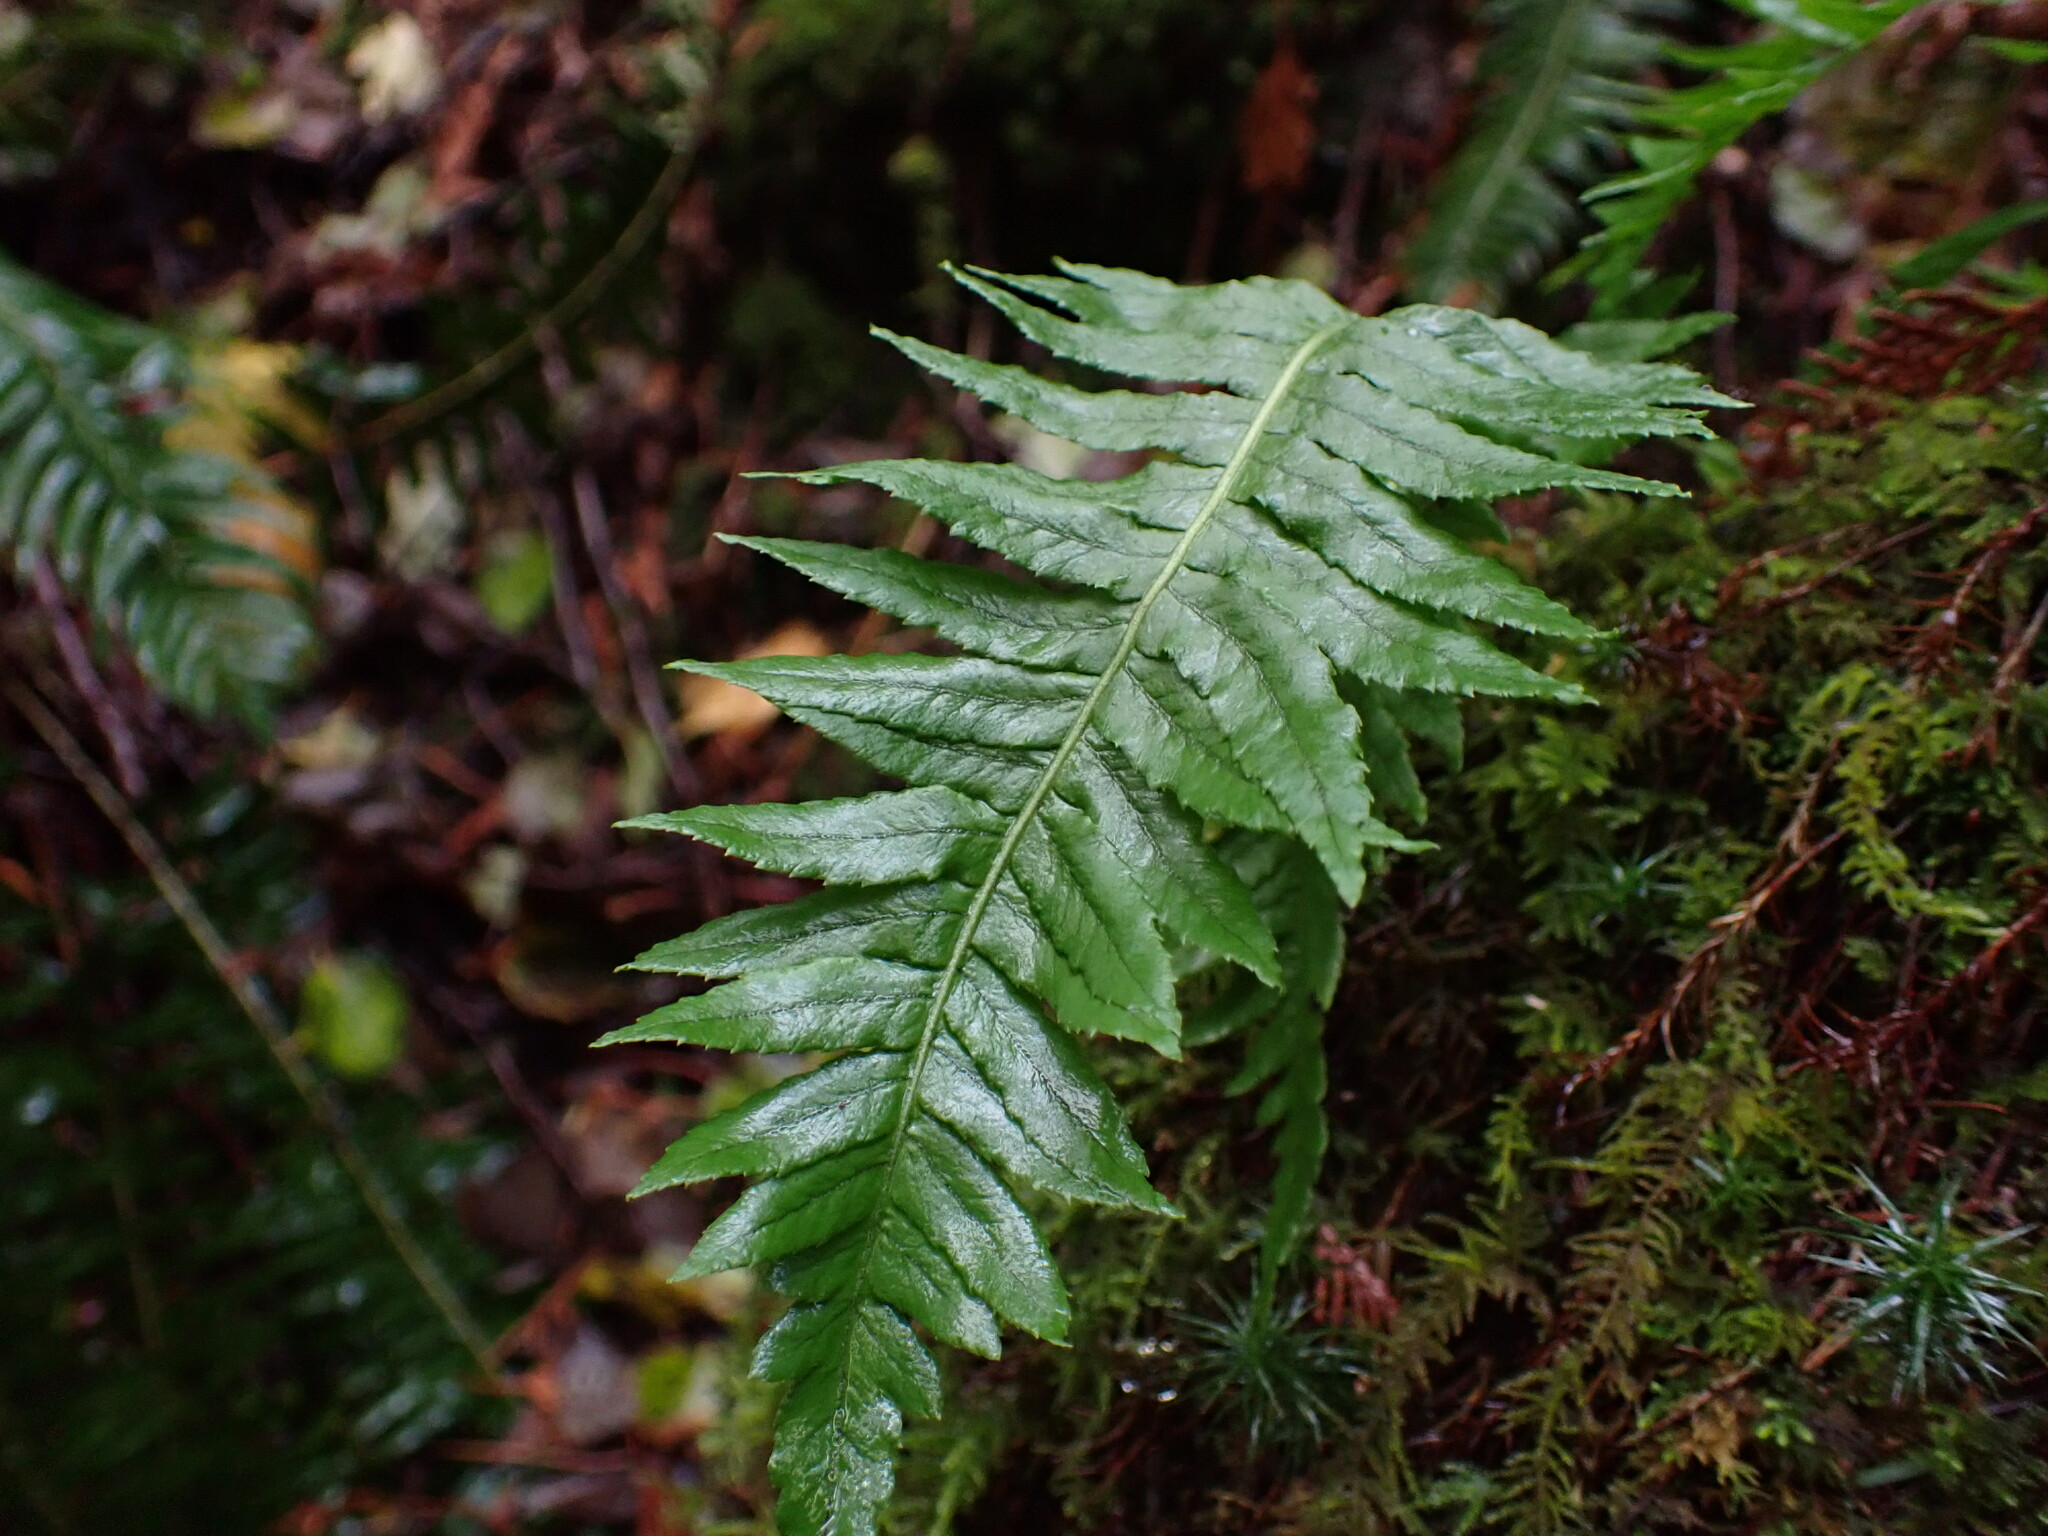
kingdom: Plantae
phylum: Tracheophyta
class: Polypodiopsida
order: Polypodiales
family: Polypodiaceae
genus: Polypodium
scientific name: Polypodium glycyrrhiza
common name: Licorice fern
